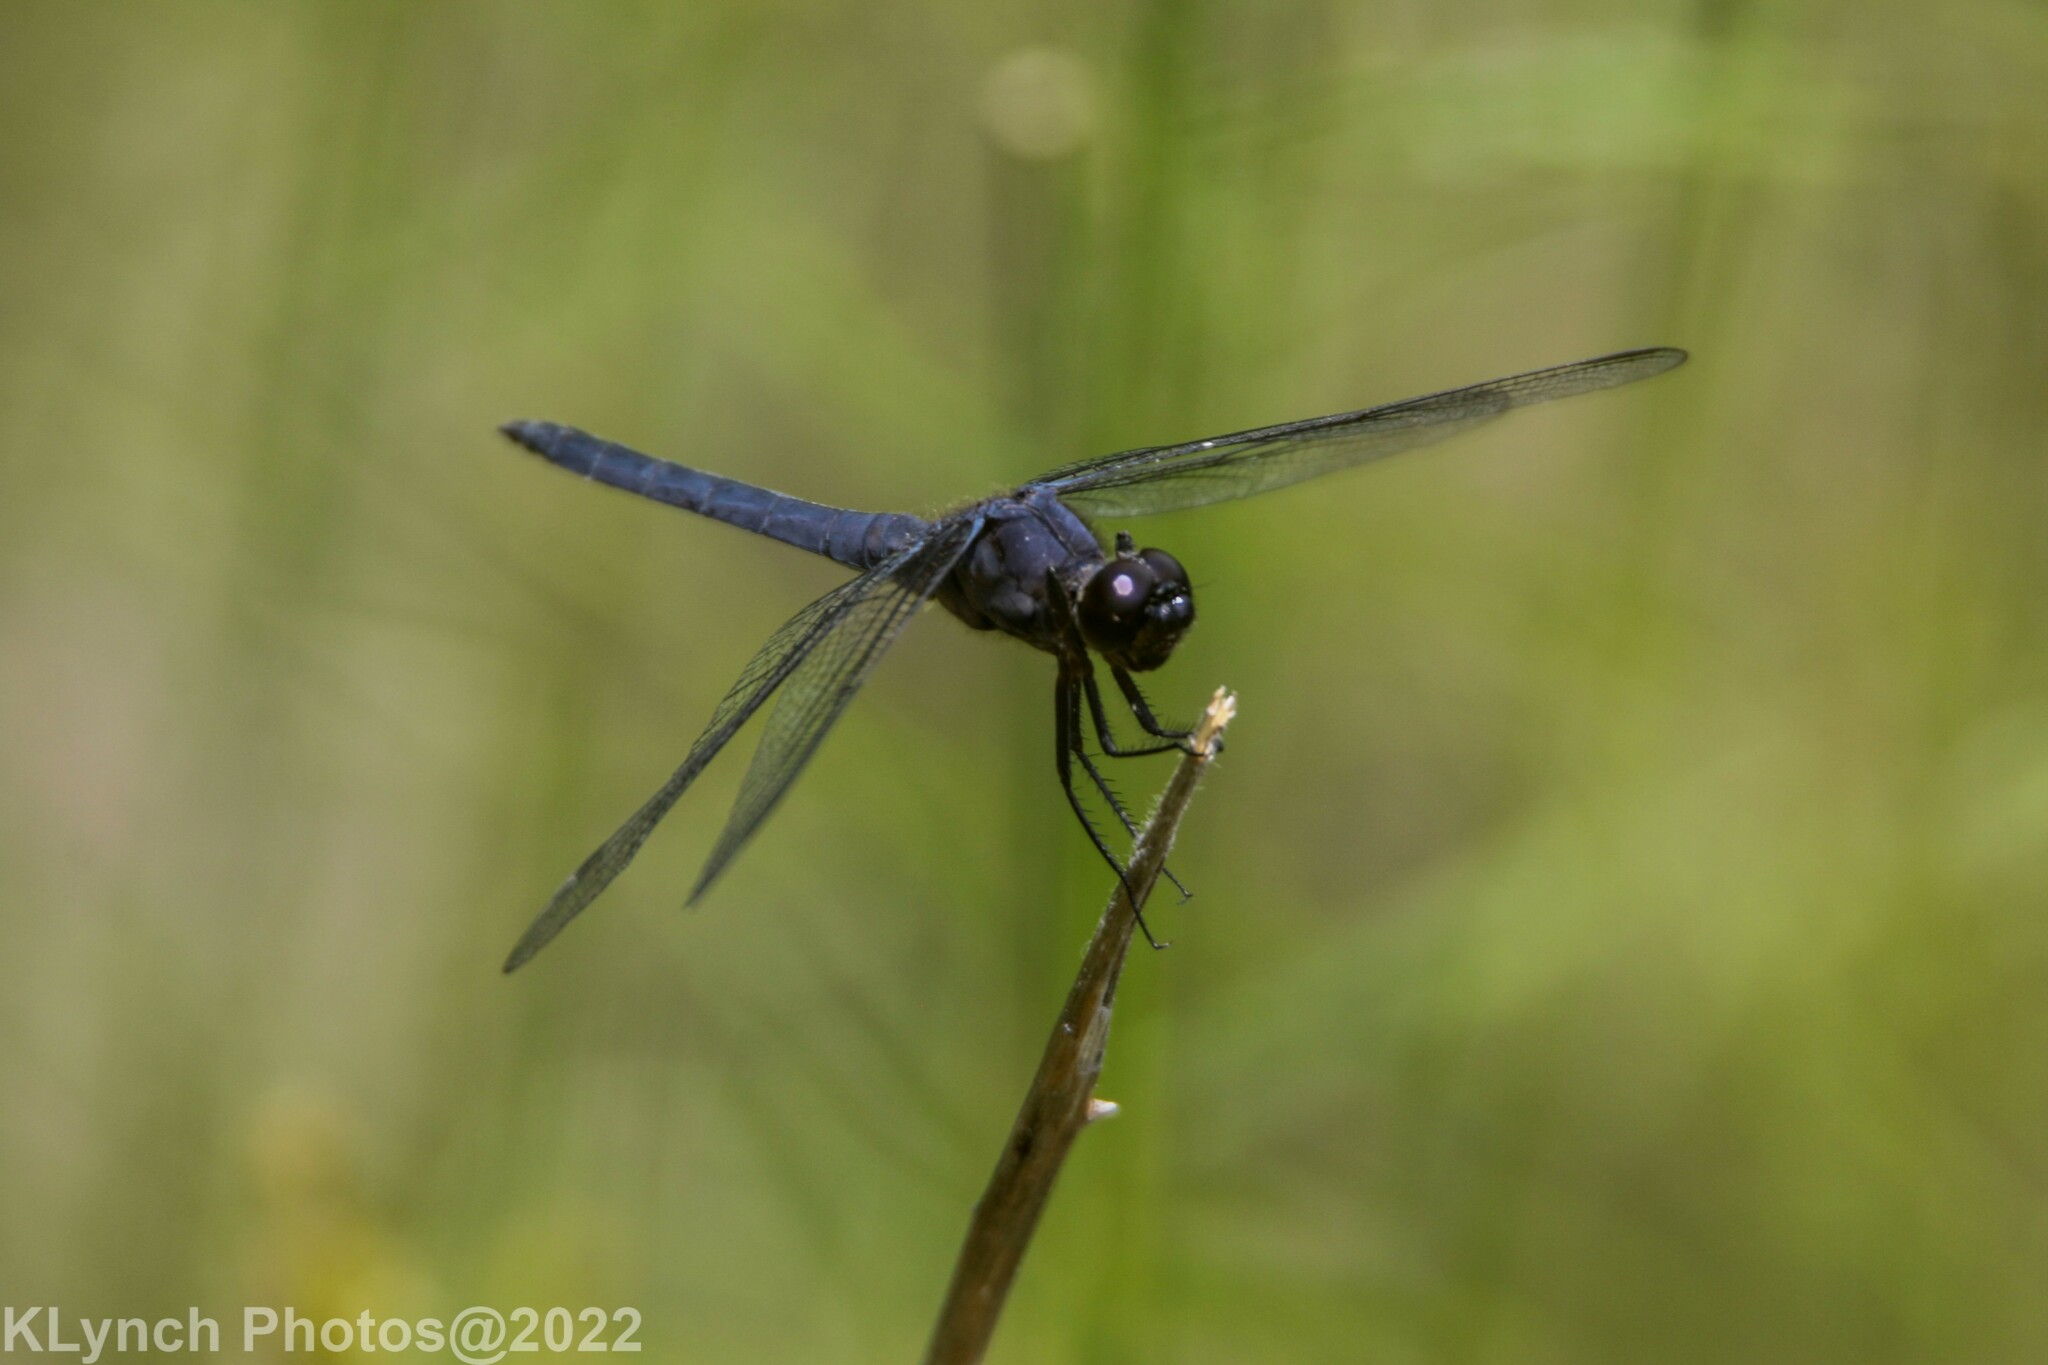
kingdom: Animalia
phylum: Arthropoda
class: Insecta
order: Odonata
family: Libellulidae
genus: Libellula
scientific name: Libellula incesta
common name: Slaty skimmer
